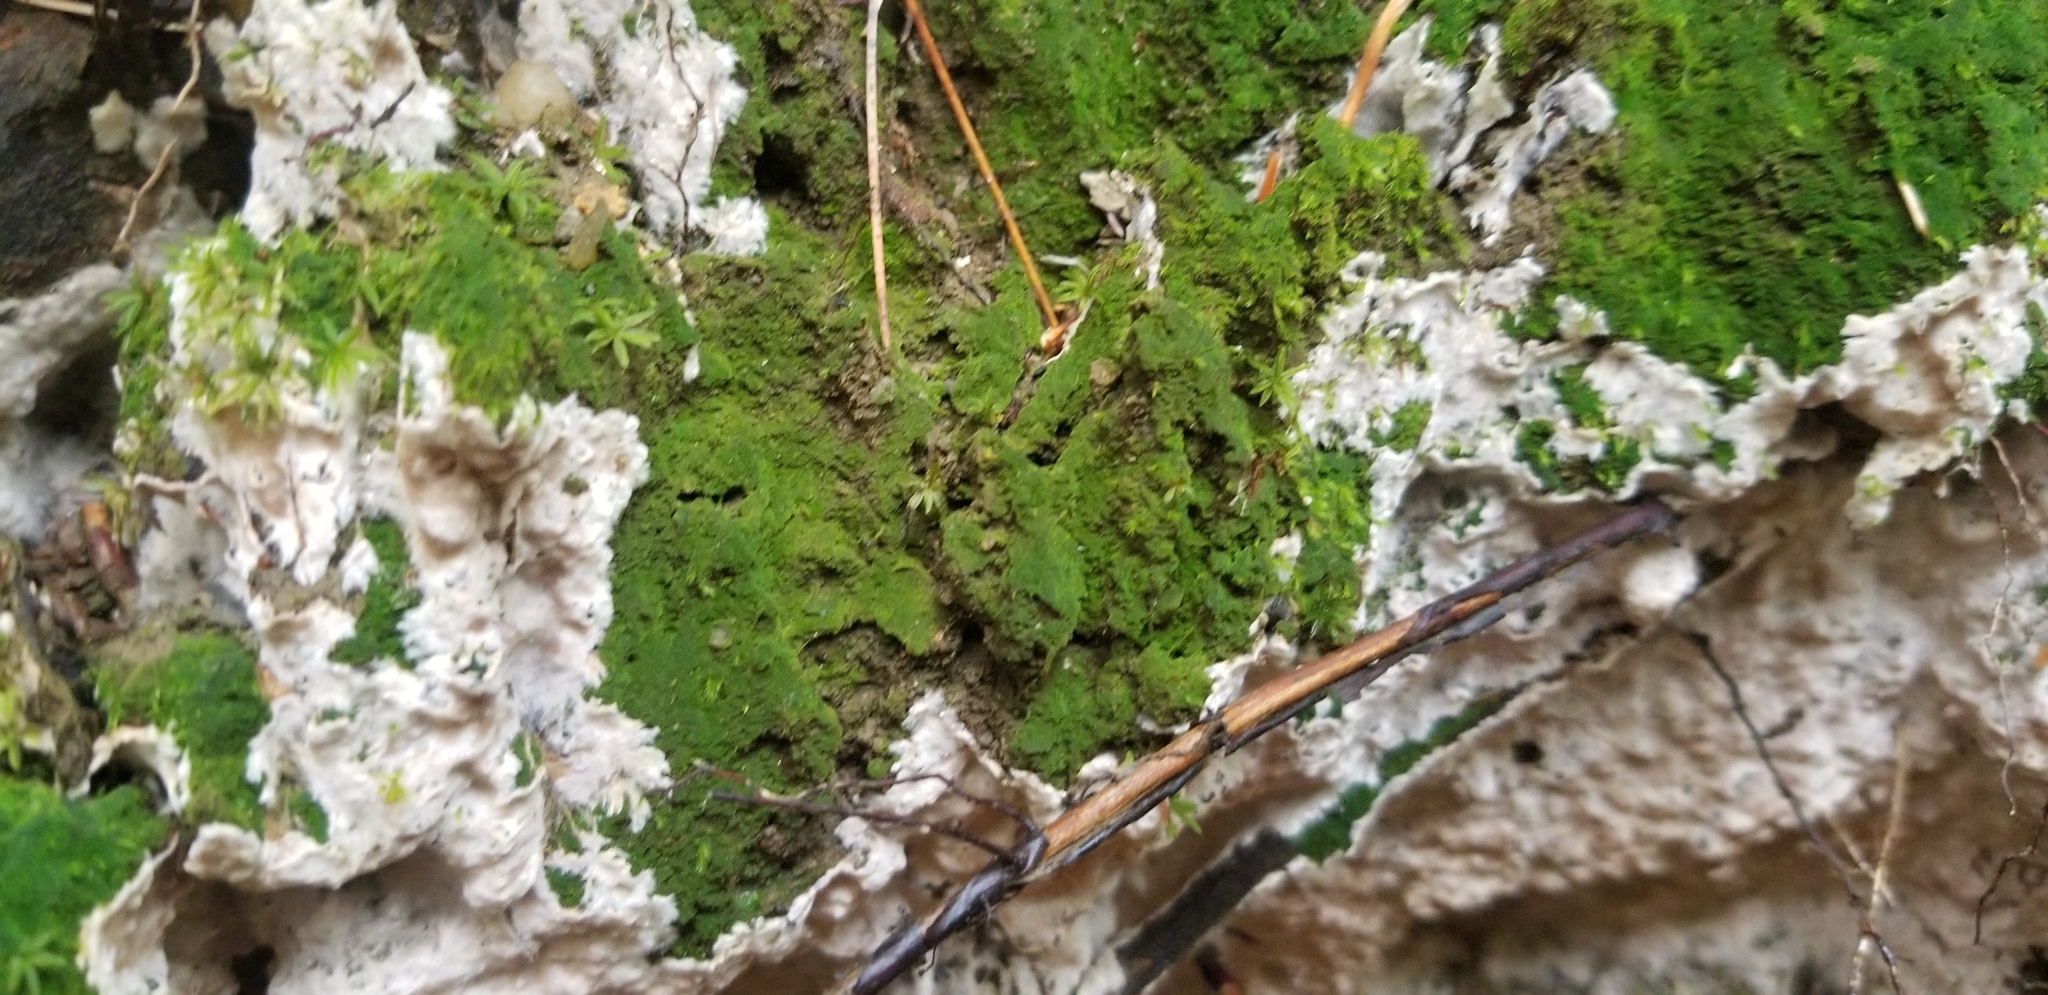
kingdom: Plantae
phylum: Bryophyta
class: Polytrichopsida
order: Polytrichales
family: Polytrichaceae
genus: Pogonatum
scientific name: Pogonatum pensilvanicum
